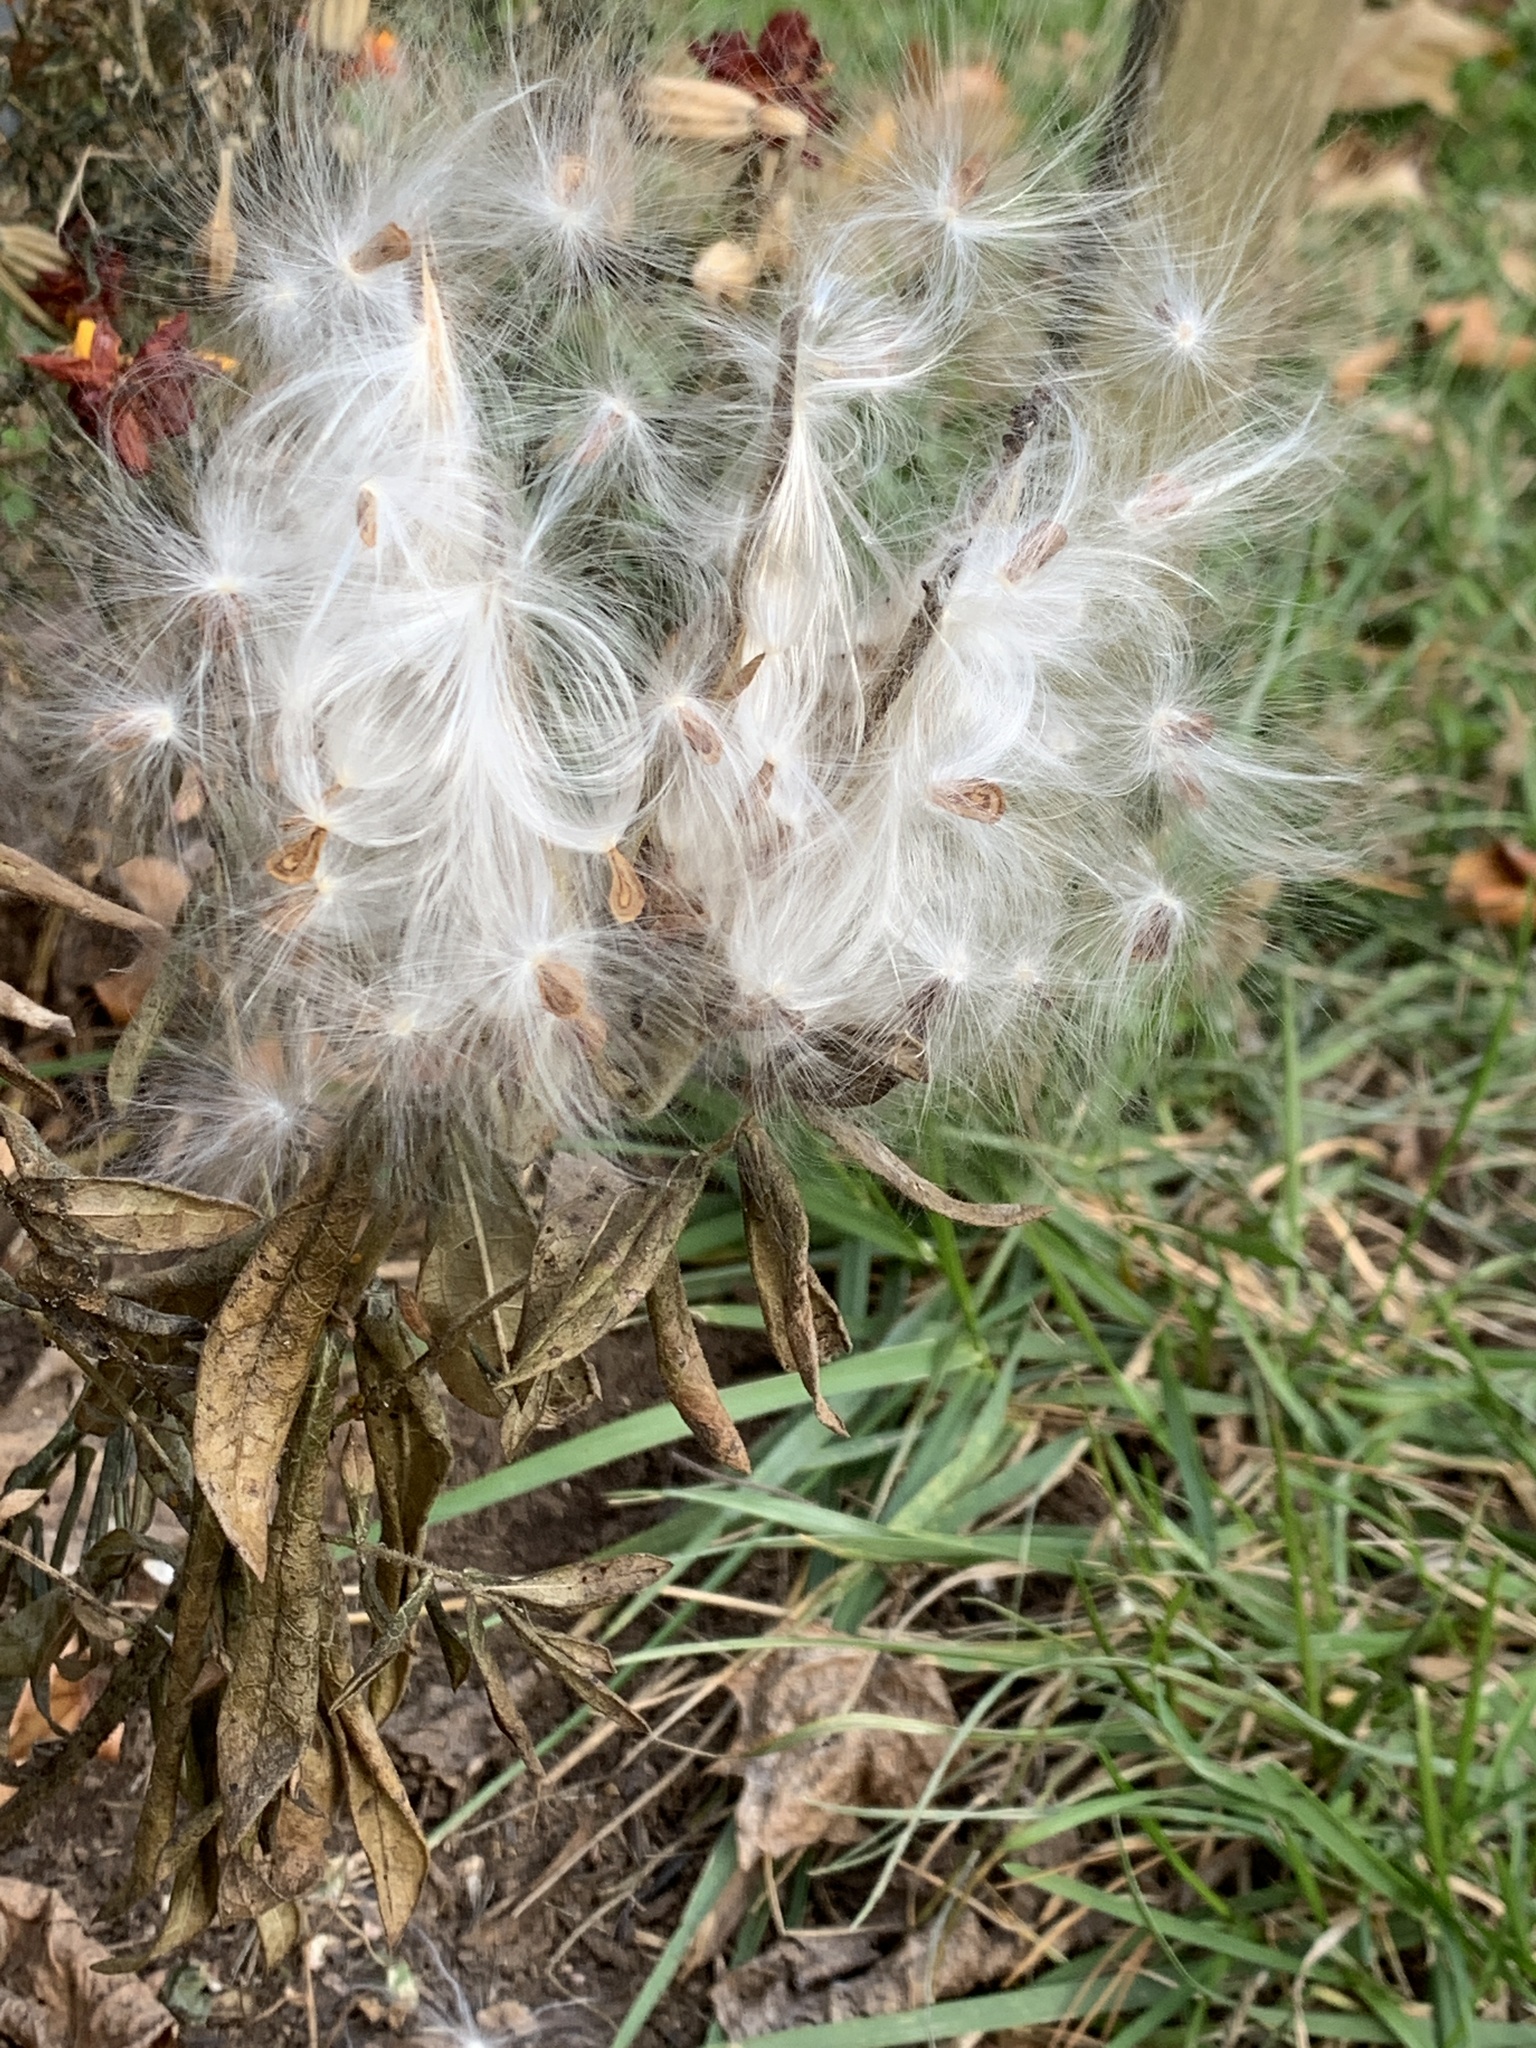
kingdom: Plantae
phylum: Tracheophyta
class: Magnoliopsida
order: Gentianales
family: Apocynaceae
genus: Asclepias
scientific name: Asclepias tuberosa
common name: Butterfly milkweed
